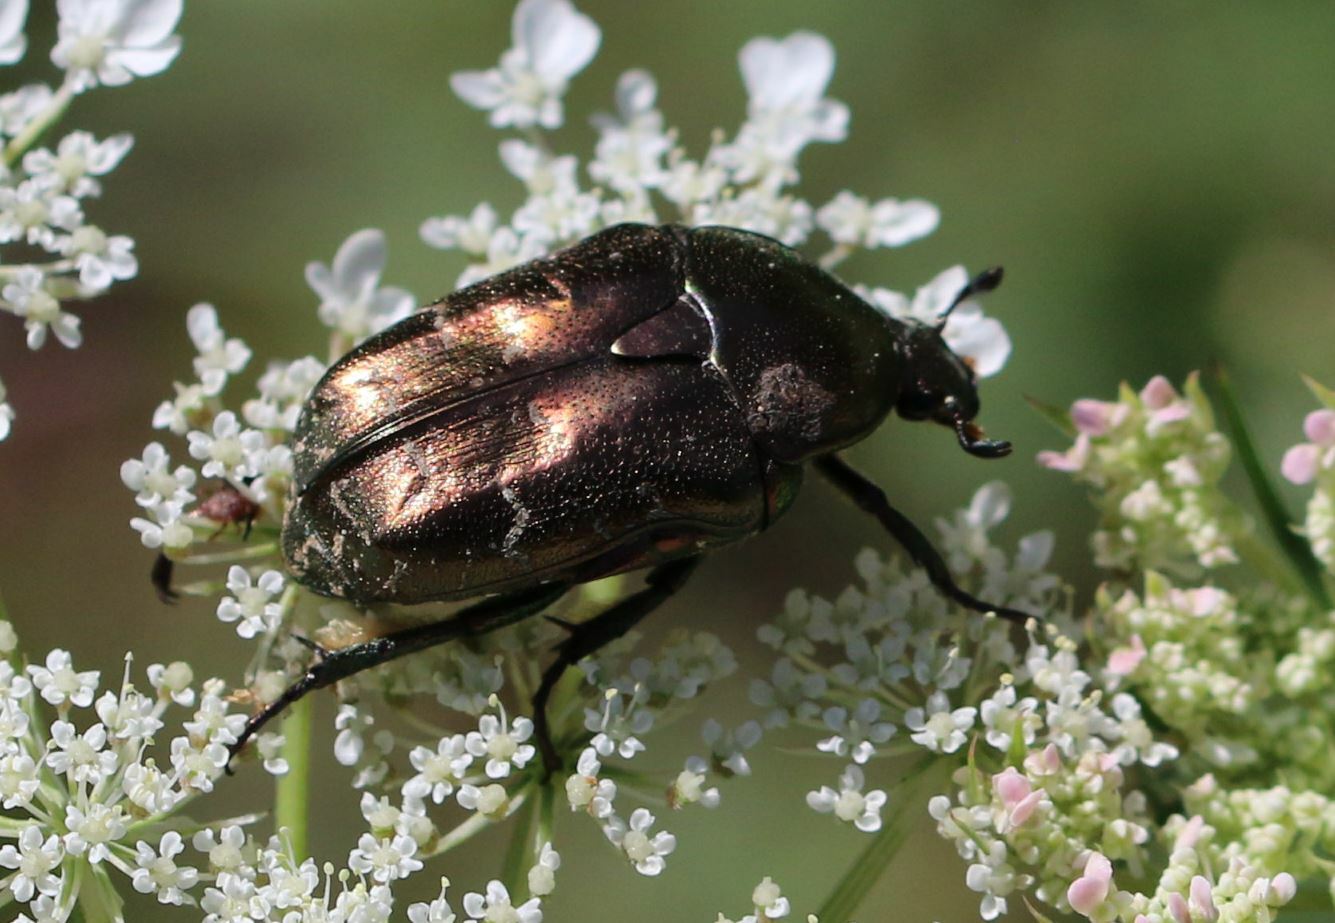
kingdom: Animalia
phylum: Arthropoda
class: Insecta
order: Coleoptera
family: Scarabaeidae
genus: Protaetia
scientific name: Protaetia cuprea
